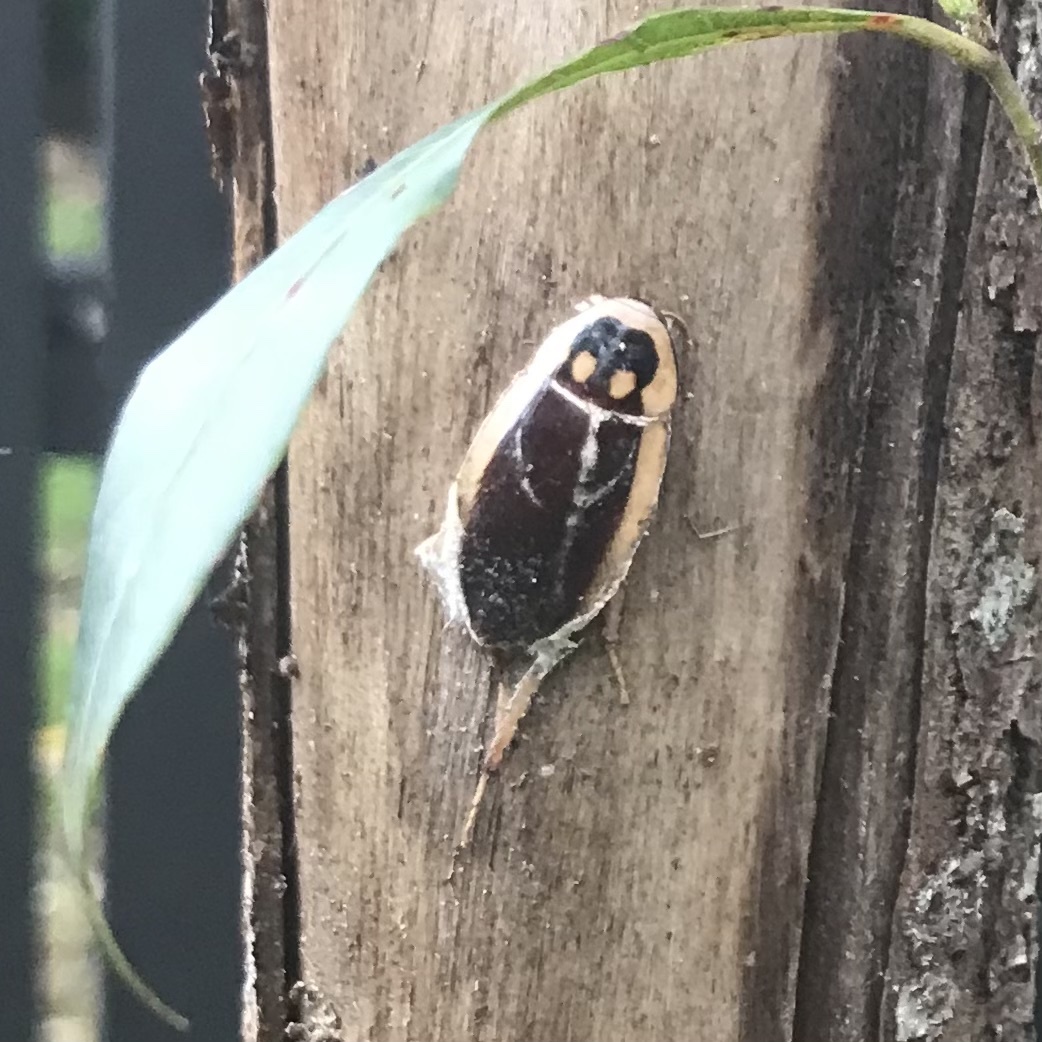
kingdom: Animalia
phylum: Arthropoda
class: Insecta
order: Blattodea
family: Blattidae
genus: Methana
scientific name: Methana soror
